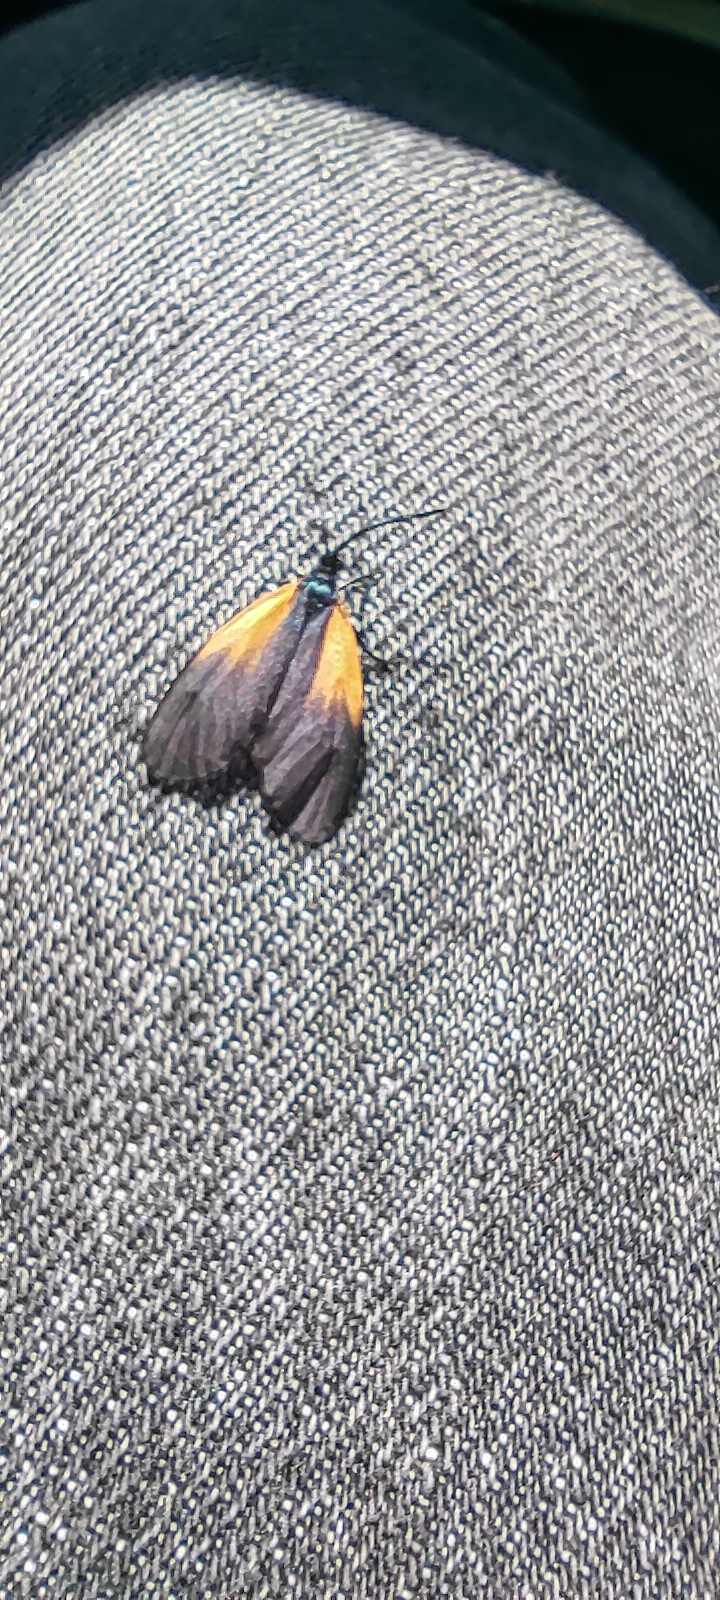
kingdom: Animalia
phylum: Arthropoda
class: Insecta
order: Lepidoptera
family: Zygaenidae
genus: Malthaca
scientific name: Malthaca dimidiata
